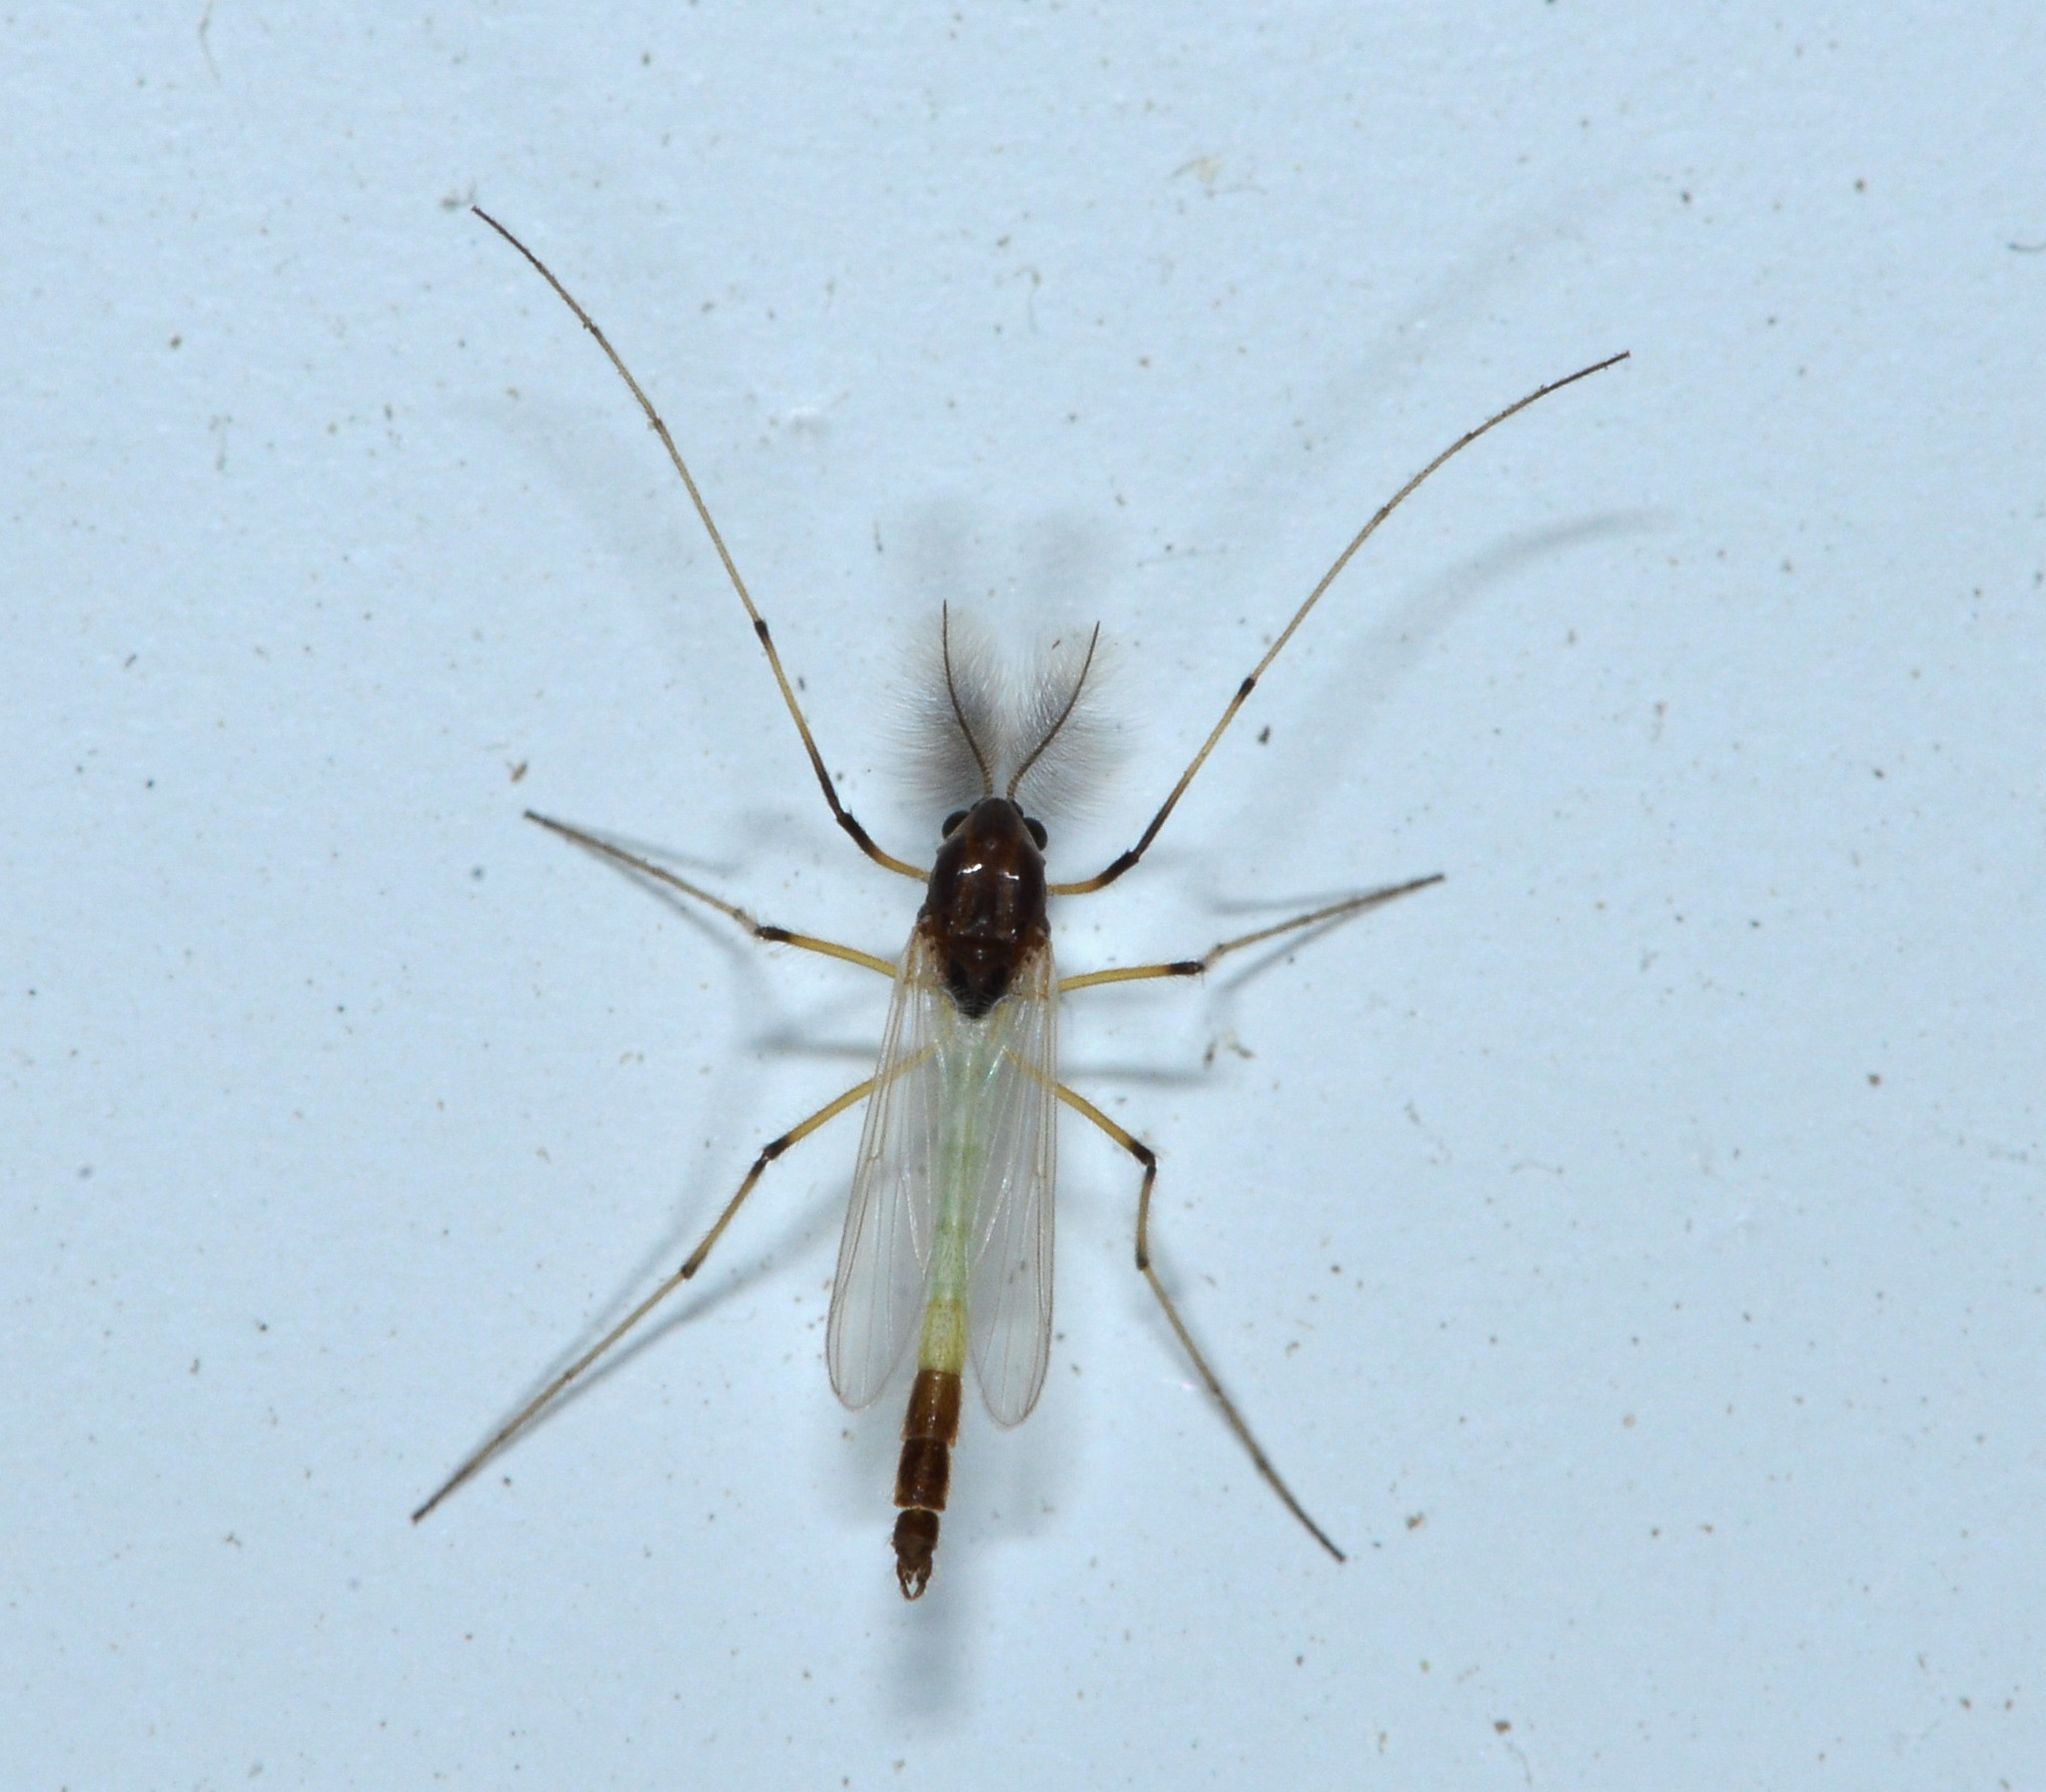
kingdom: Animalia
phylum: Arthropoda
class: Insecta
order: Diptera
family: Chironomidae
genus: Endochironomus
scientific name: Endochironomus nigricans
